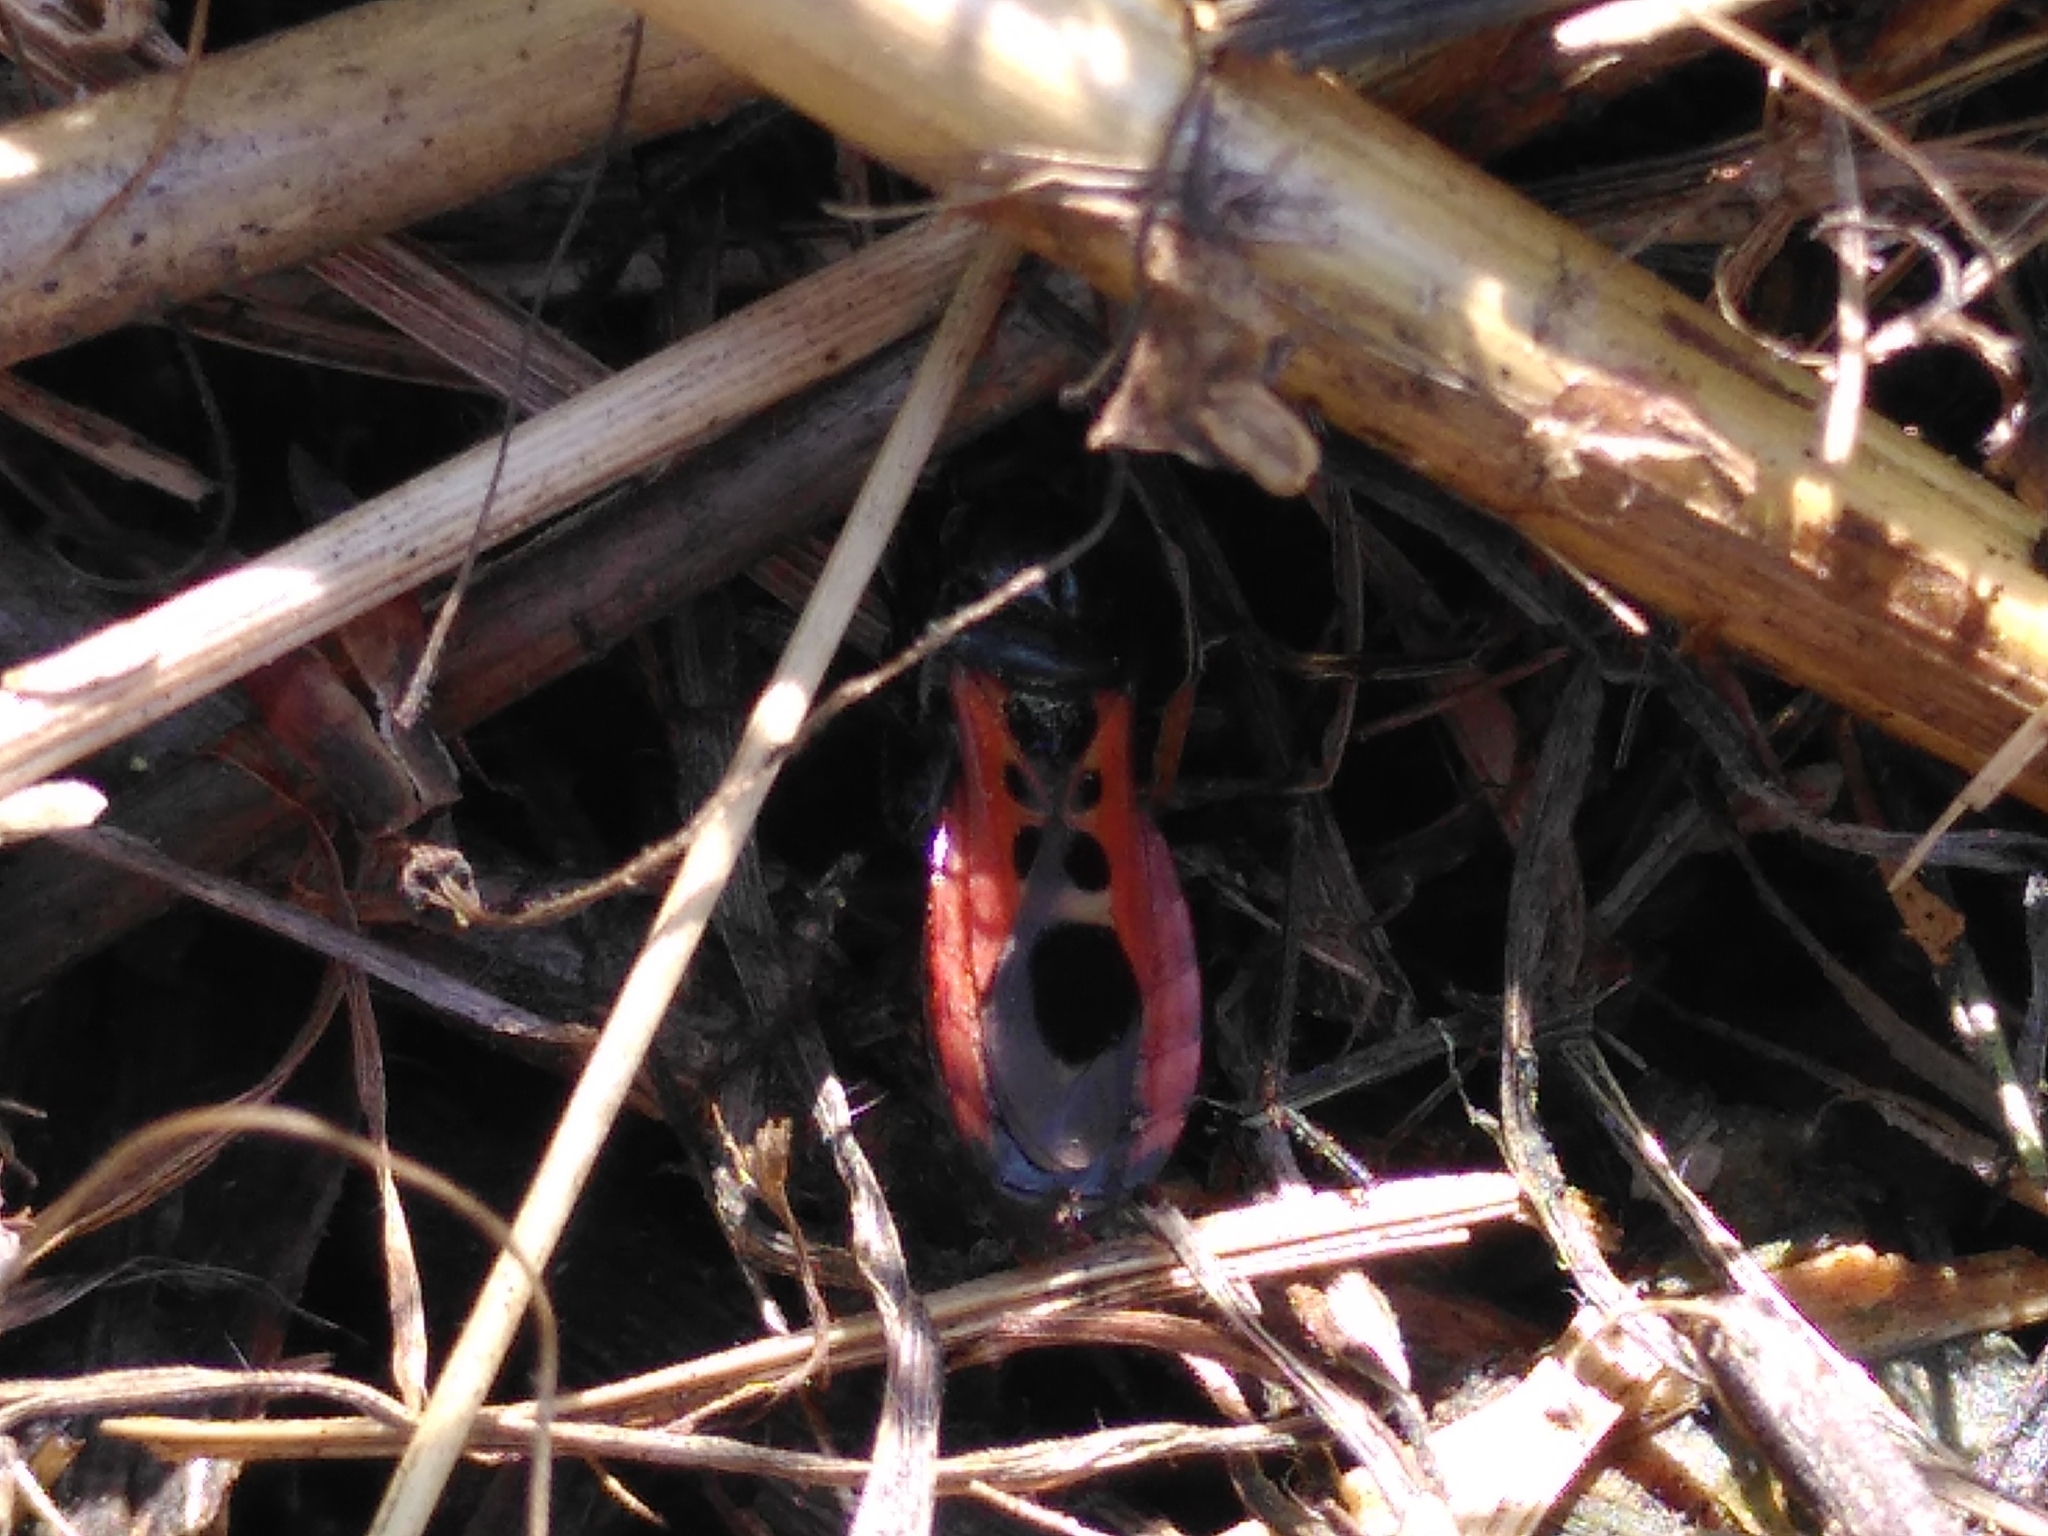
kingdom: Animalia
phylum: Arthropoda
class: Insecta
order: Hemiptera
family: Reduviidae
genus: Peirates
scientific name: Peirates stridulus
